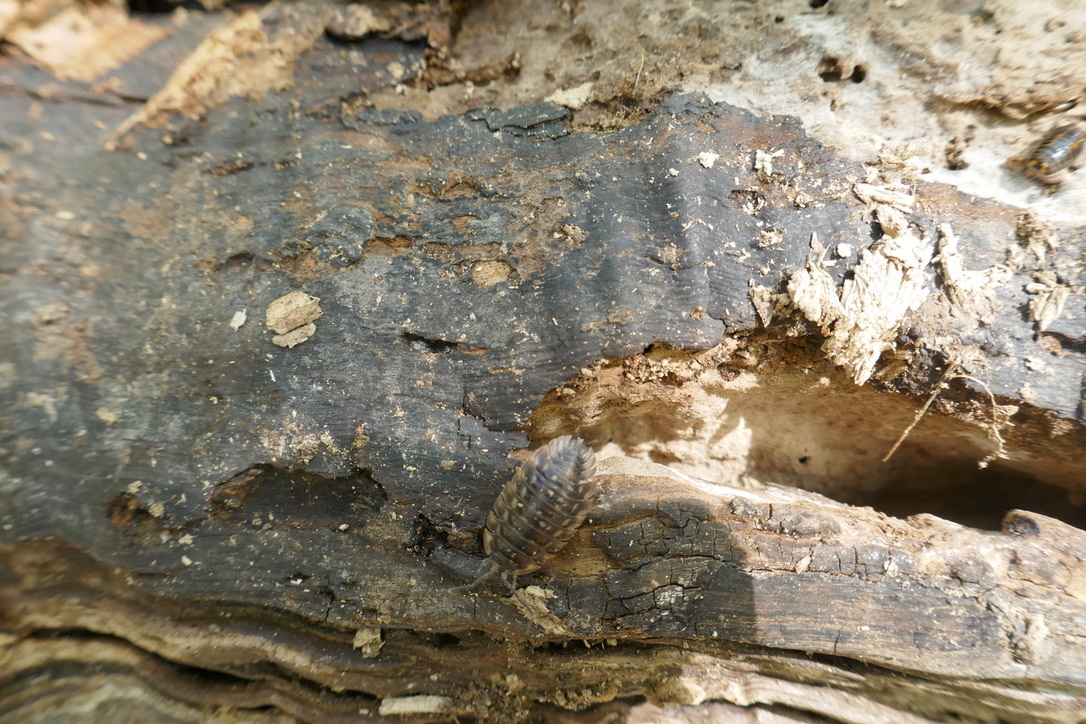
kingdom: Animalia
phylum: Arthropoda
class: Malacostraca
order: Isopoda
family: Oniscidae
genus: Oniscus
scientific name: Oniscus asellus
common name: Common shiny woodlouse
